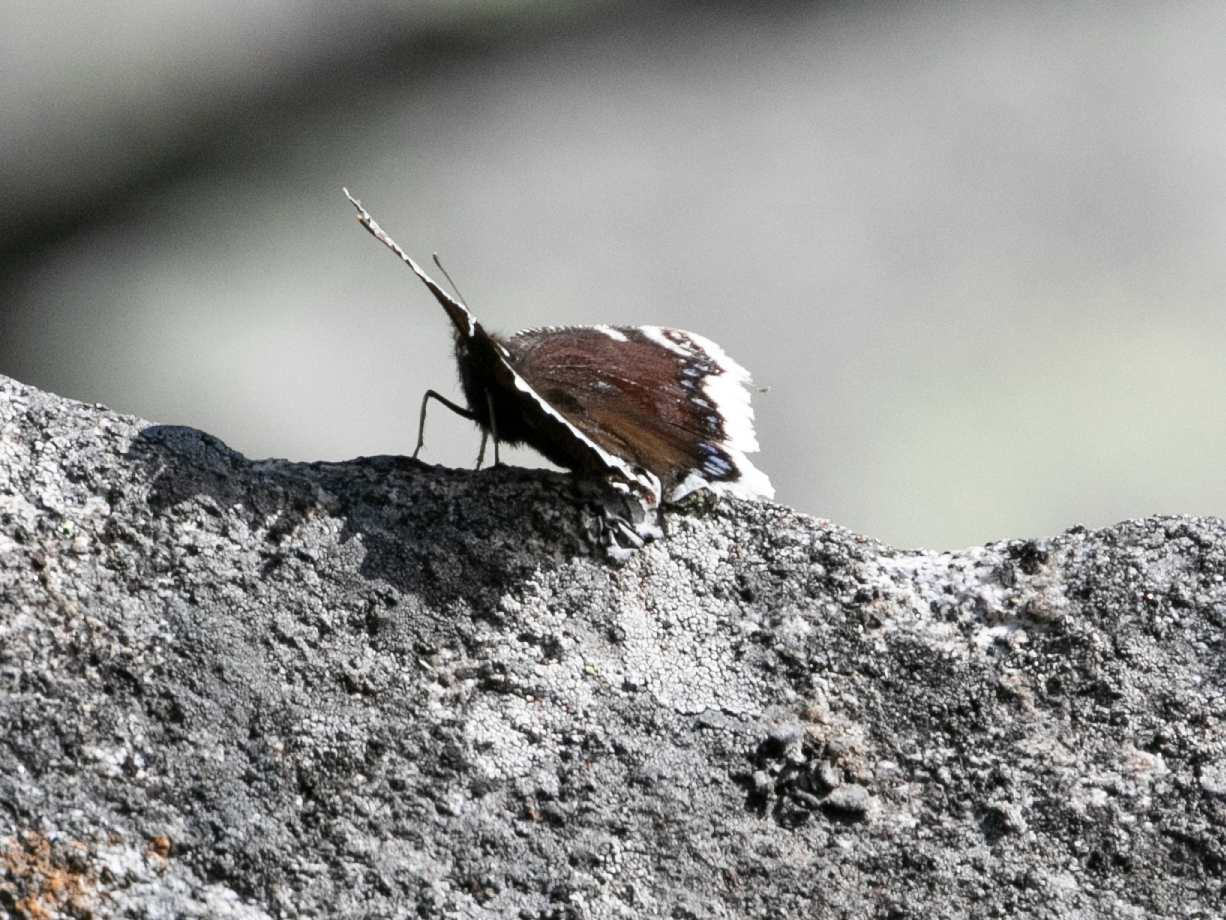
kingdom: Animalia
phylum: Arthropoda
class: Insecta
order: Lepidoptera
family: Nymphalidae
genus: Nymphalis
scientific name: Nymphalis antiopa
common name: Camberwell beauty
